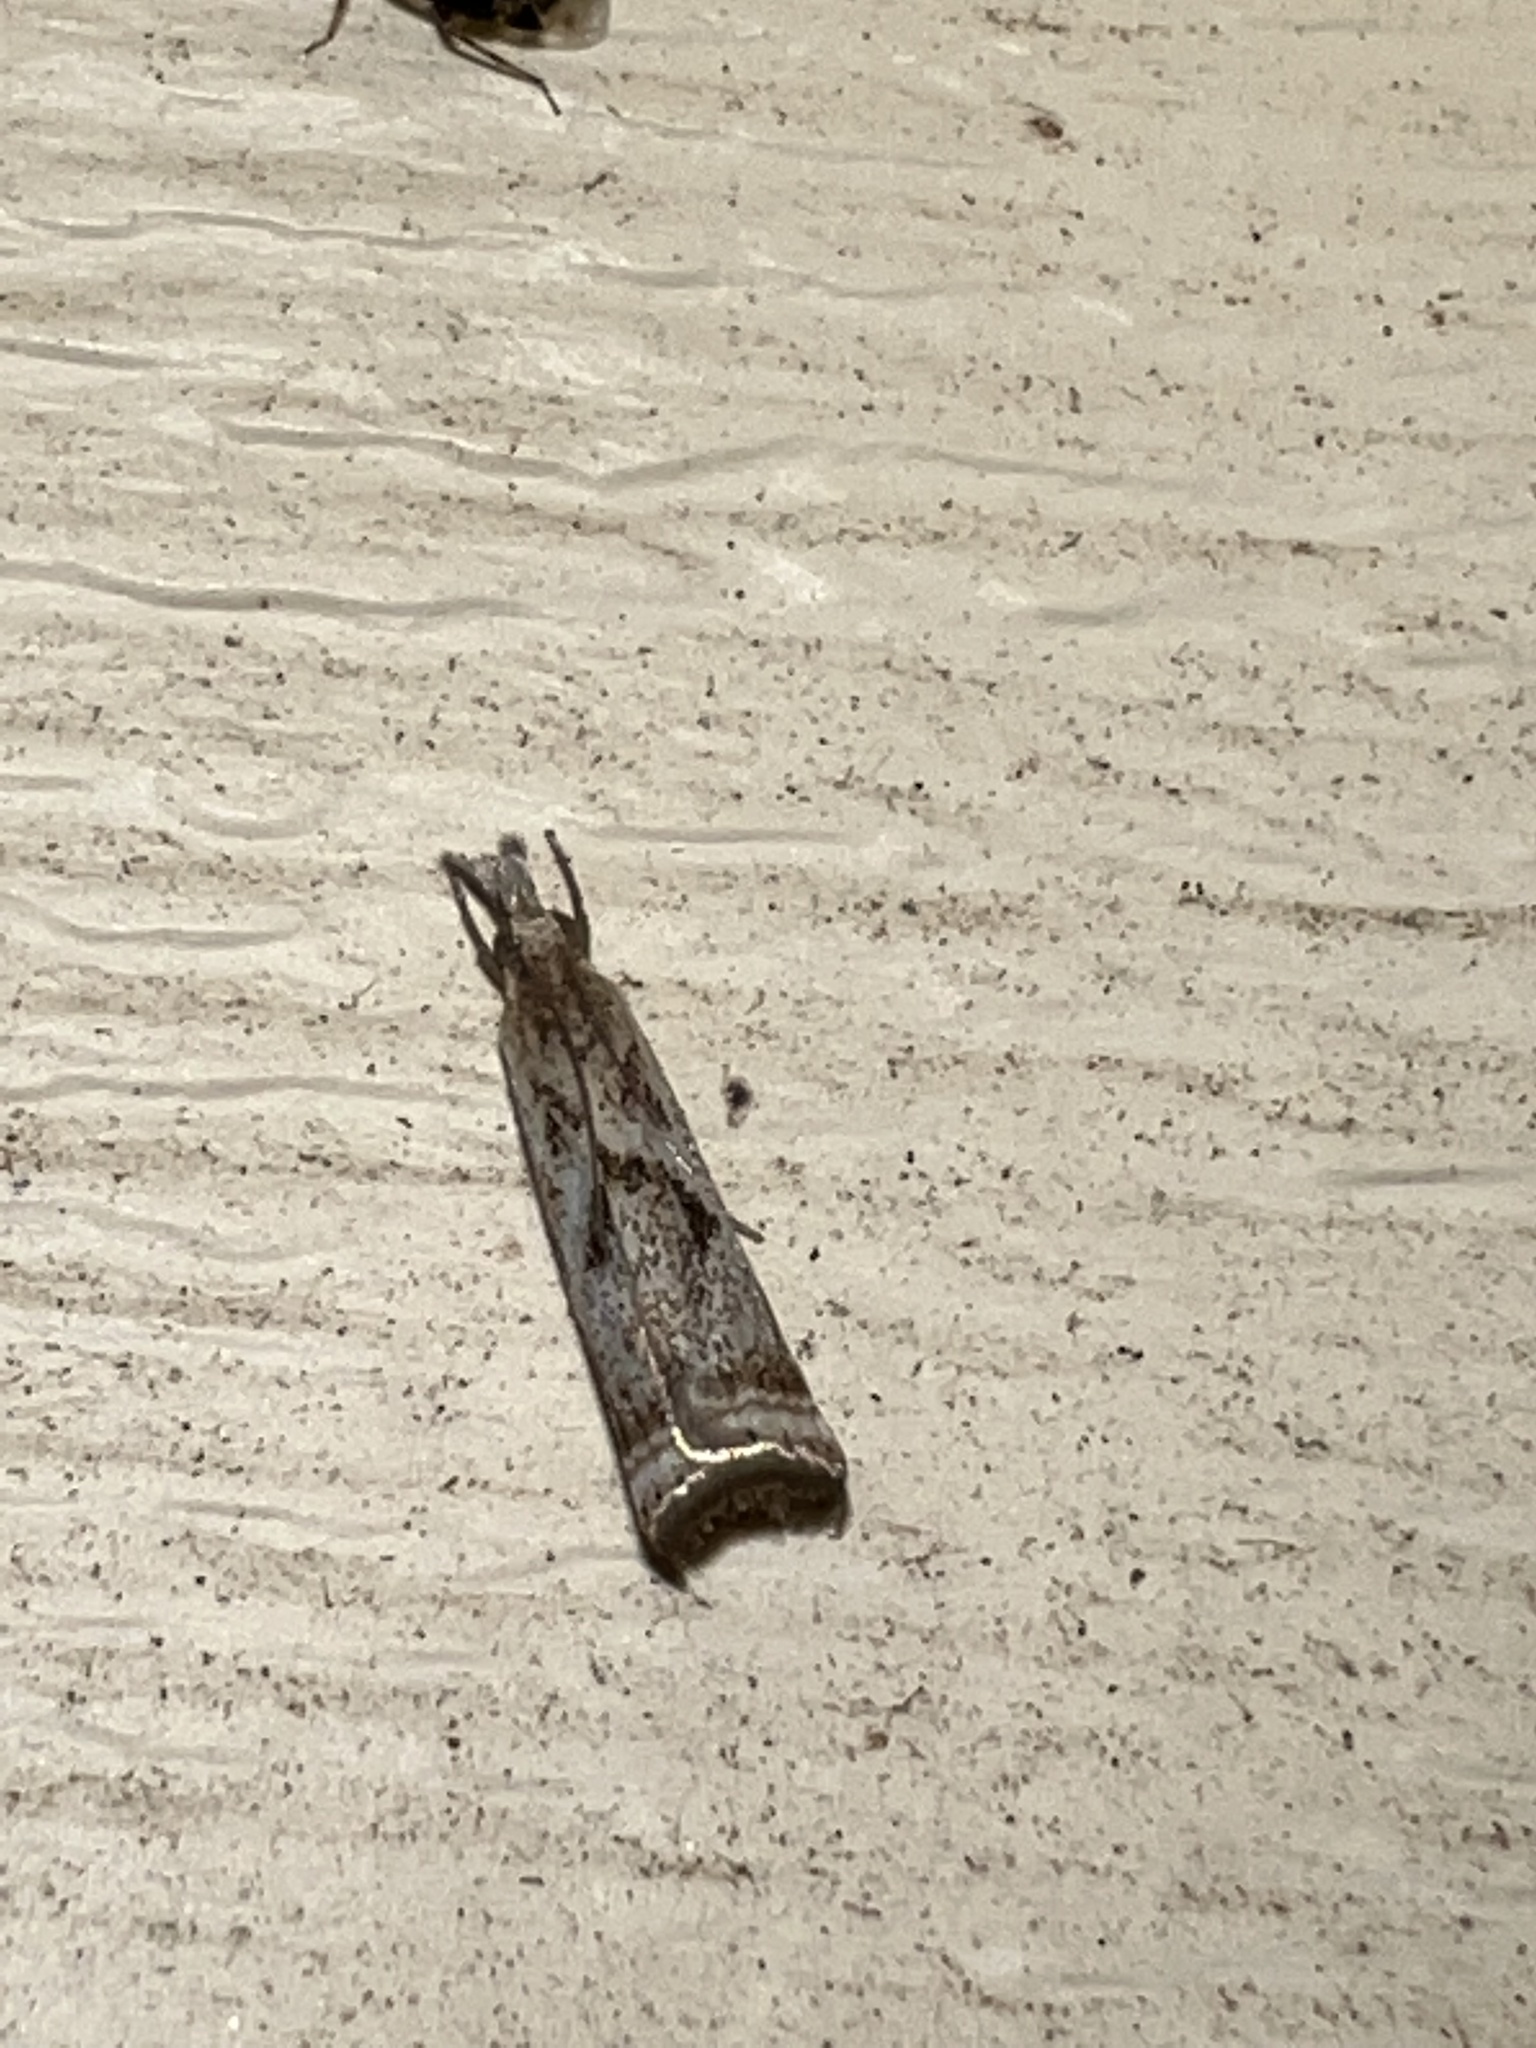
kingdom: Animalia
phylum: Arthropoda
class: Insecta
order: Lepidoptera
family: Crambidae
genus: Microcrambus
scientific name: Microcrambus elegans
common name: Elegant grass-veneer
